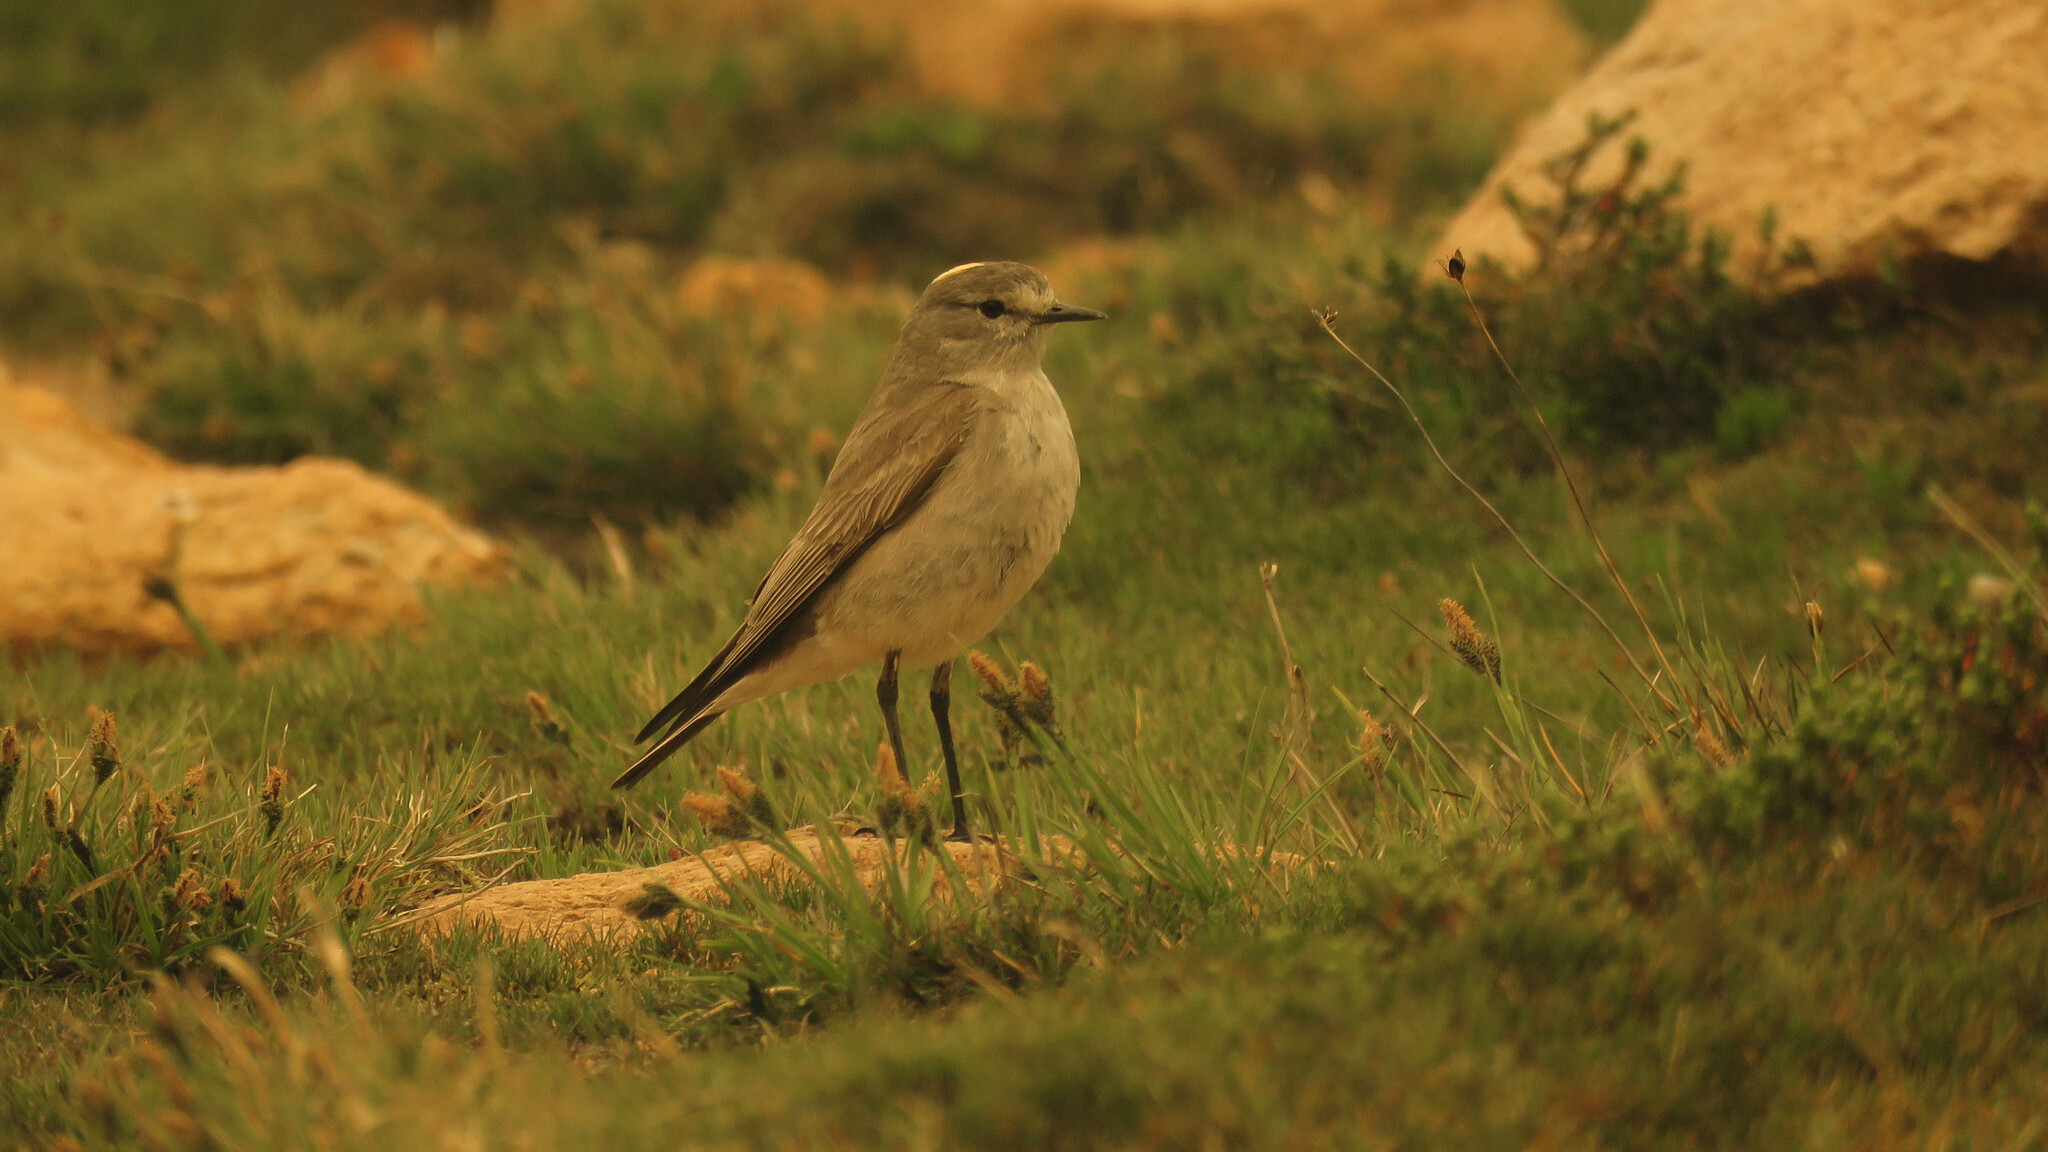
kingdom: Animalia
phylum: Chordata
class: Aves
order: Passeriformes
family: Tyrannidae
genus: Muscisaxicola
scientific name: Muscisaxicola flavinucha
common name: Ochre-naped ground tyrant
